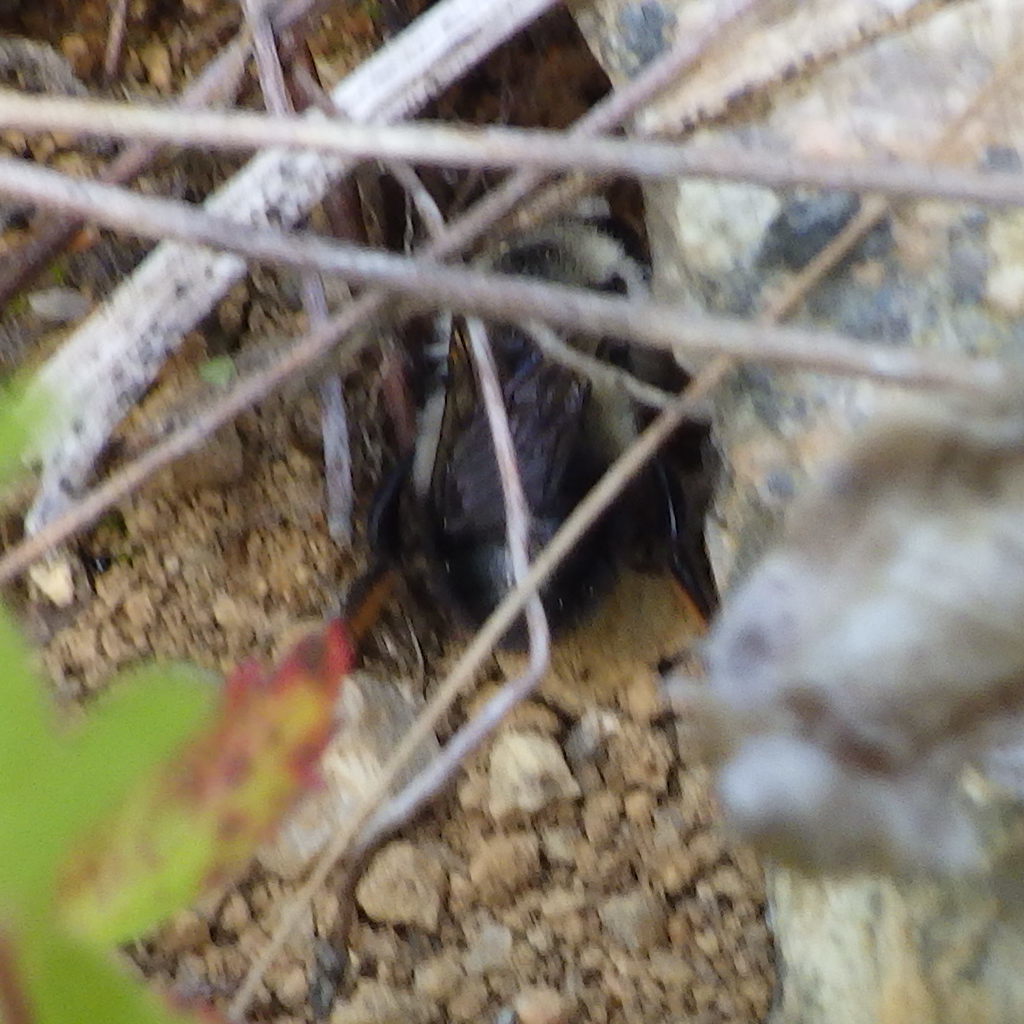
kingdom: Animalia
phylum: Arthropoda
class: Insecta
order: Hymenoptera
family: Megachilidae
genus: Megachile
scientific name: Megachile melanophaea
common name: Black-and-gray leafcutter bee
